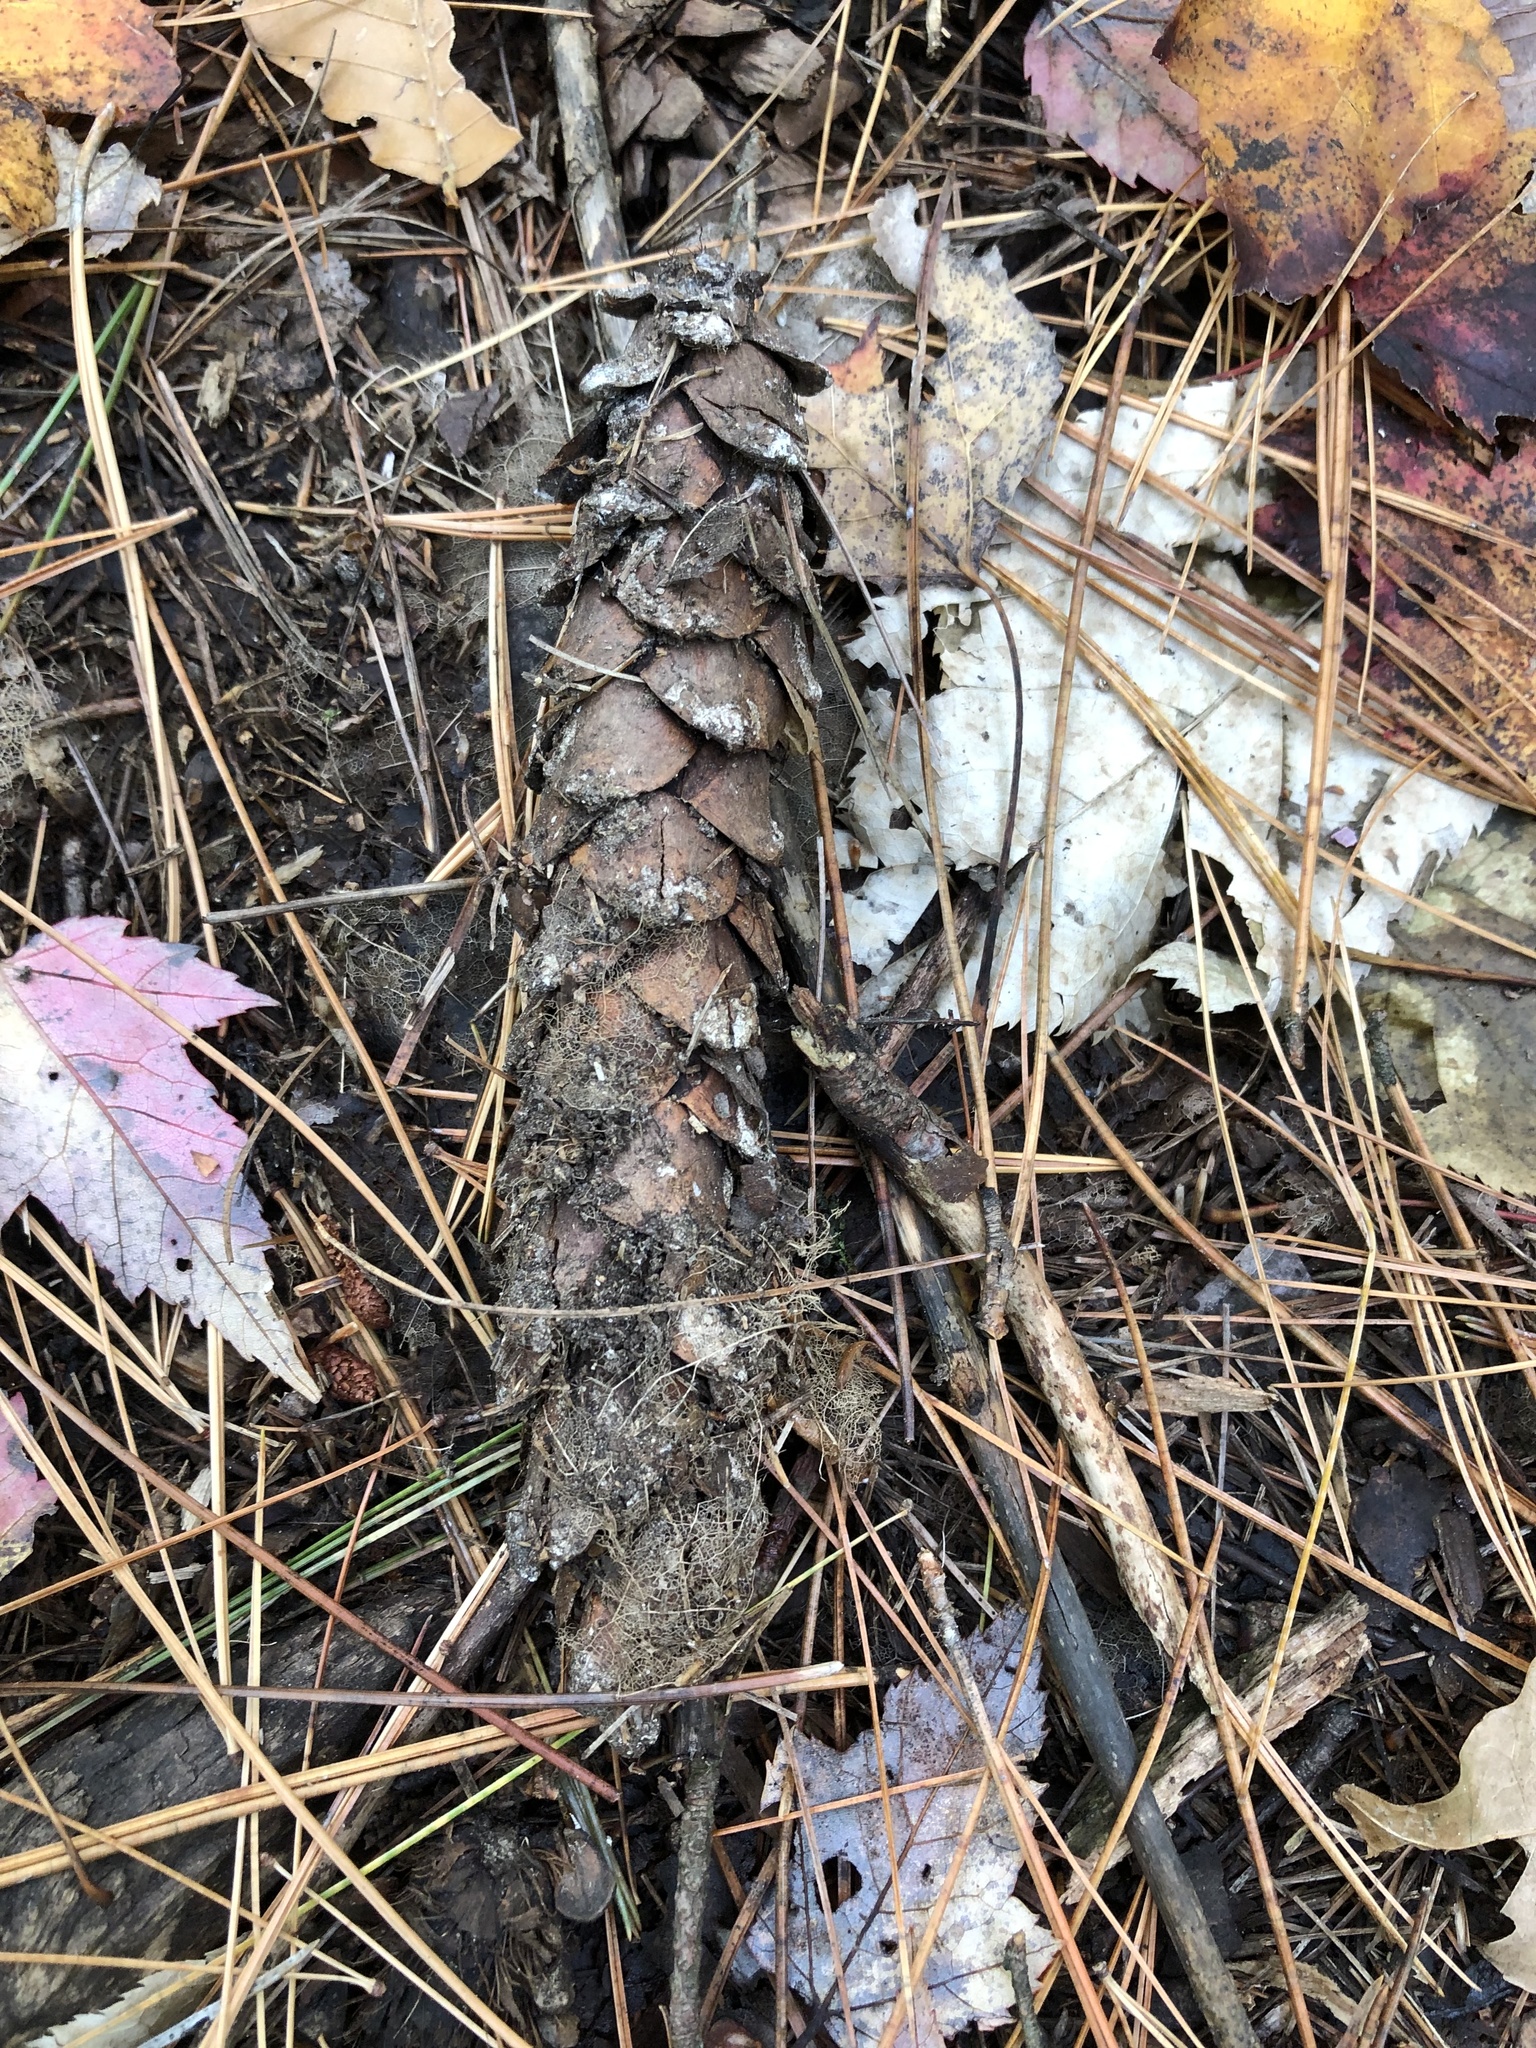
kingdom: Plantae
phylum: Tracheophyta
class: Pinopsida
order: Pinales
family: Pinaceae
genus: Pinus
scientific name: Pinus strobus
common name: Weymouth pine
